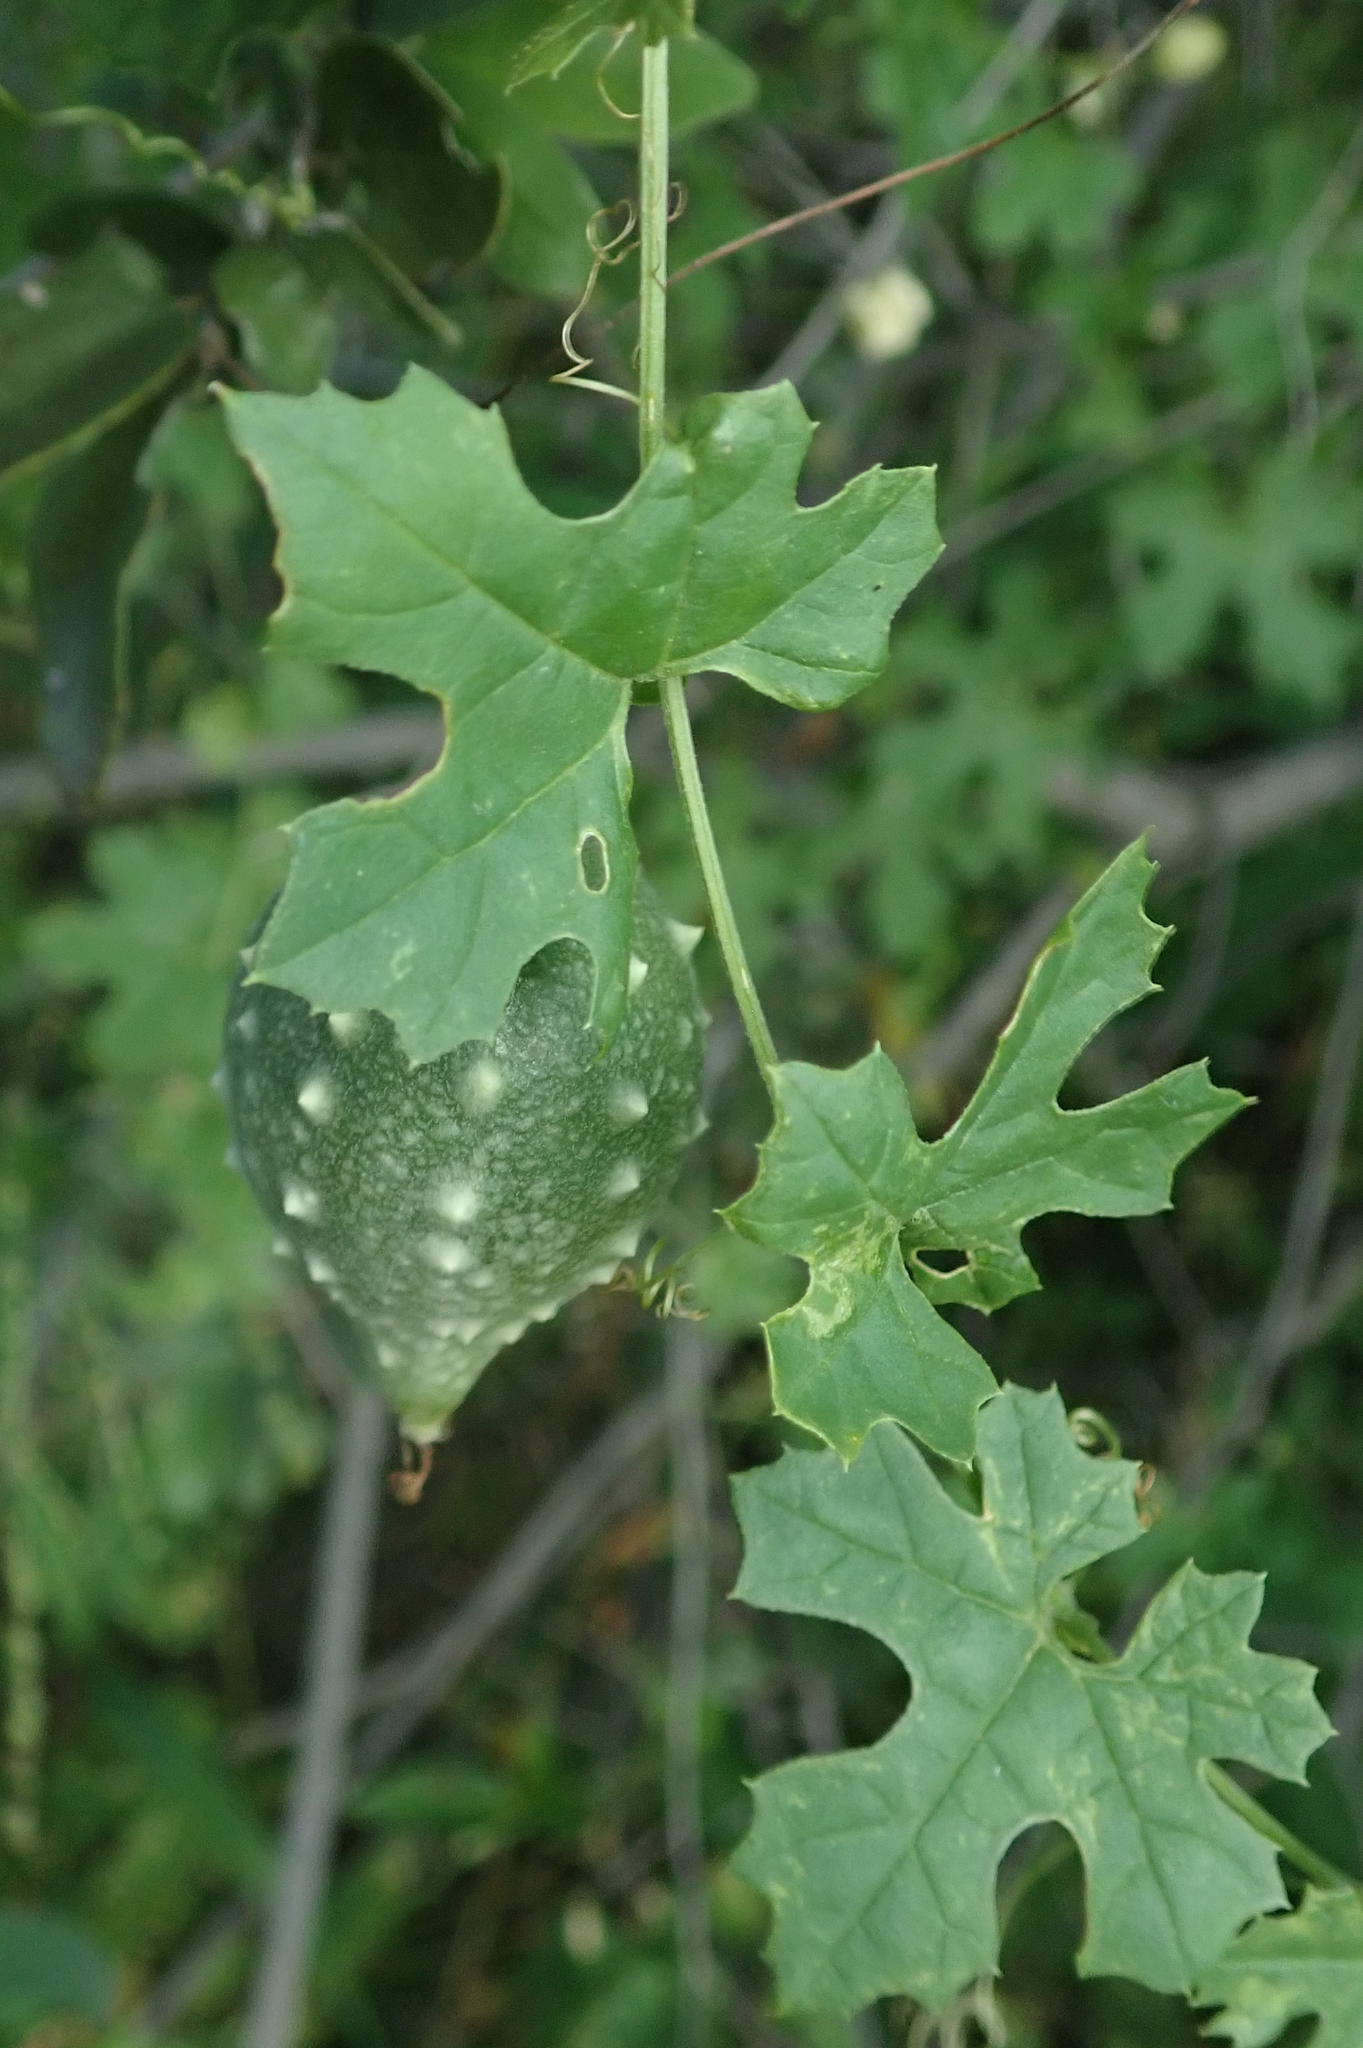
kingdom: Plantae
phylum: Tracheophyta
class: Magnoliopsida
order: Cucurbitales
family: Cucurbitaceae
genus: Momordica
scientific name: Momordica balsamina
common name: Southern balsampear
